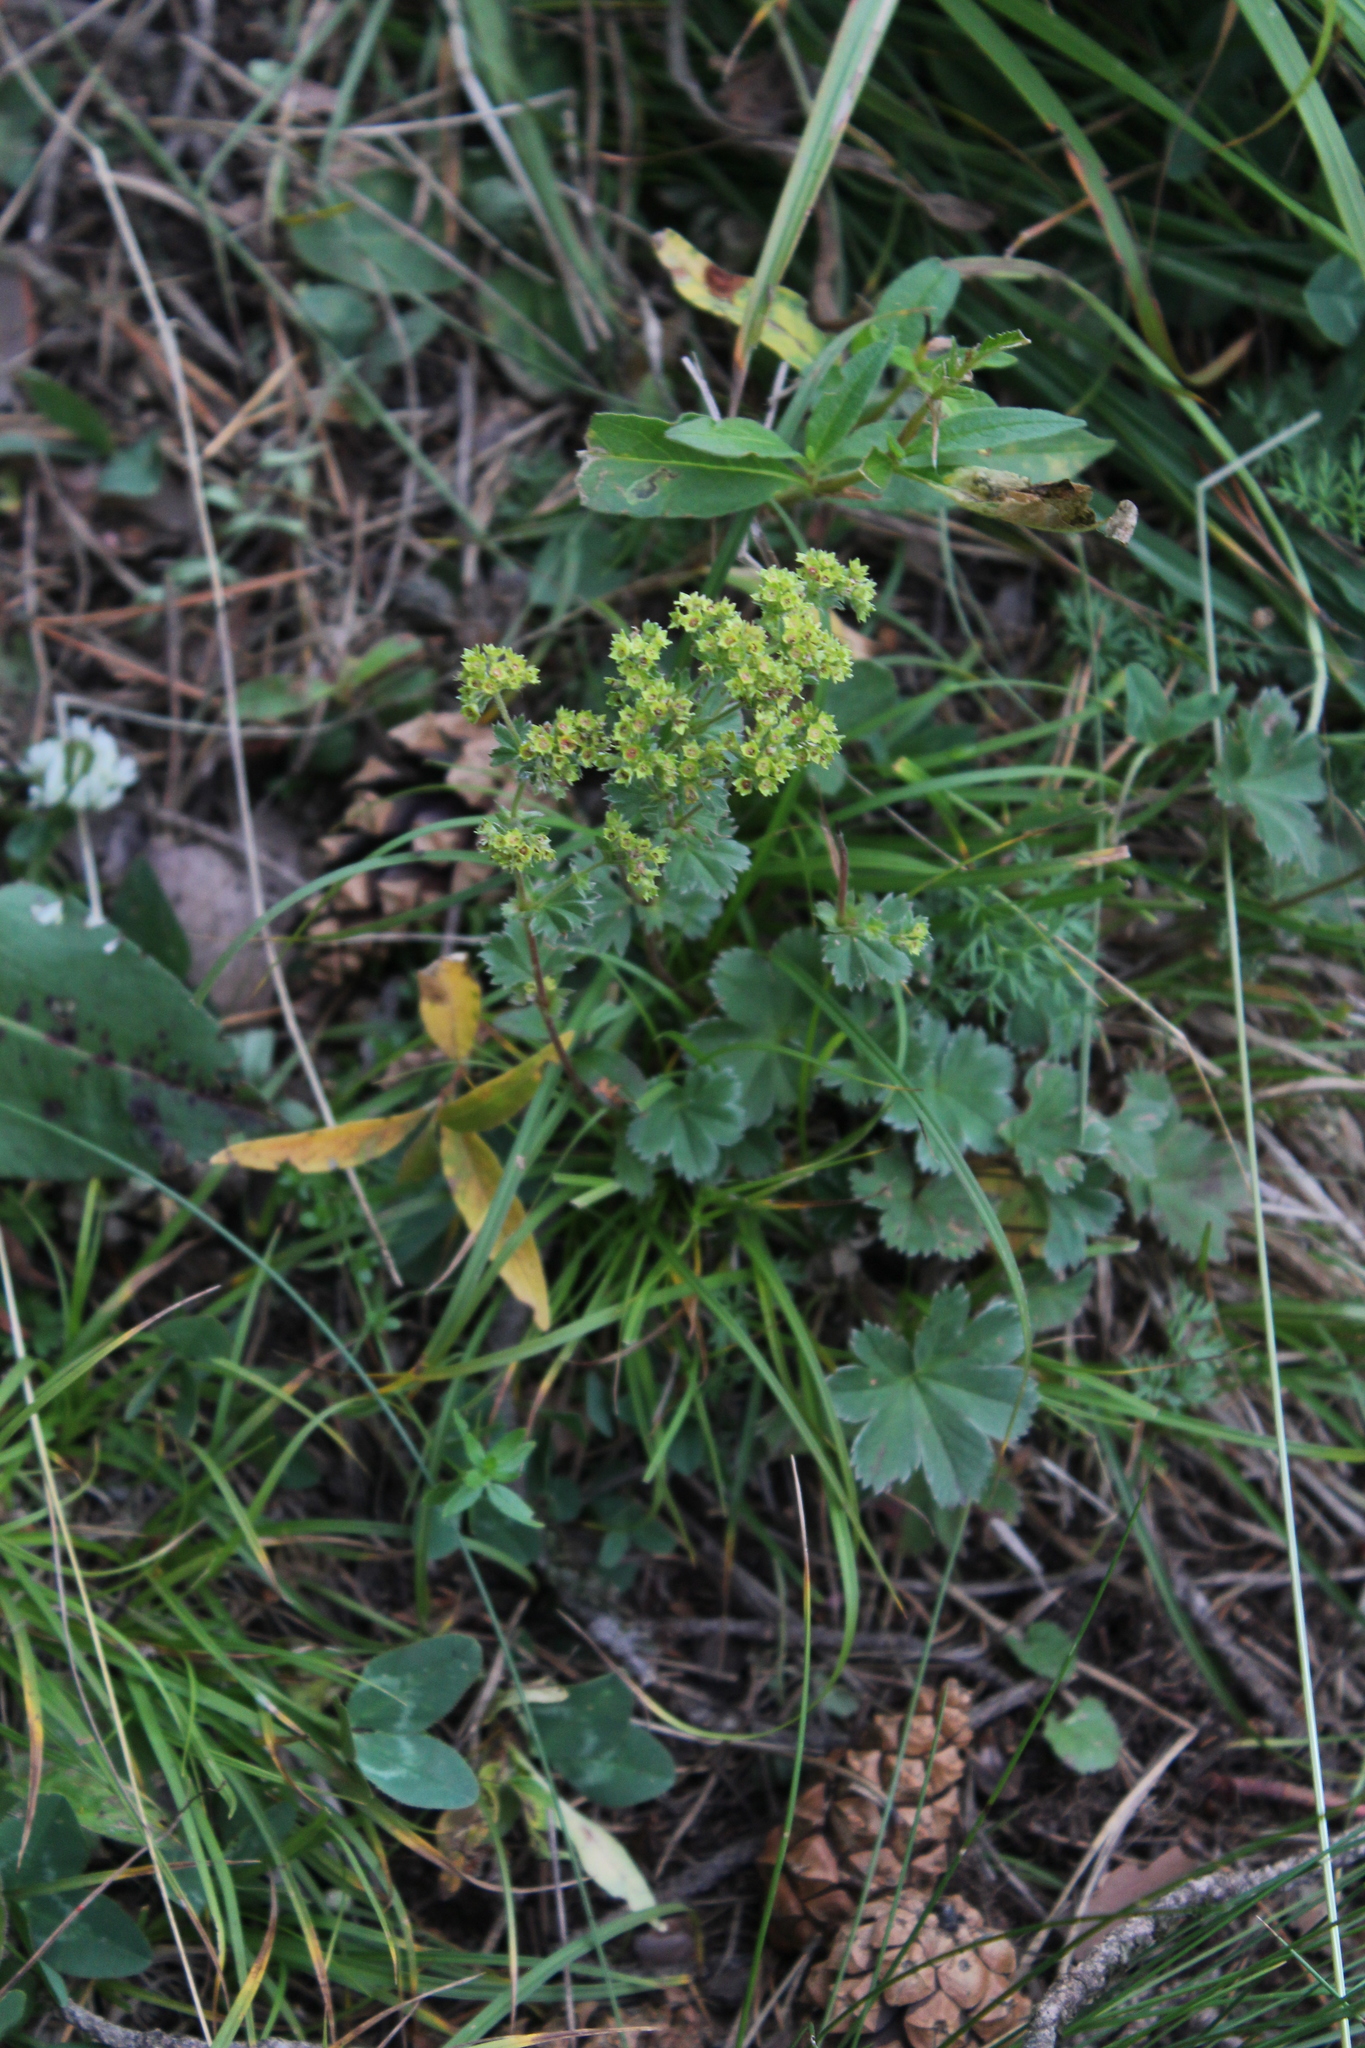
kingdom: Plantae
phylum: Tracheophyta
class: Magnoliopsida
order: Rosales
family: Rosaceae
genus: Alchemilla
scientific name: Alchemilla caucasica
